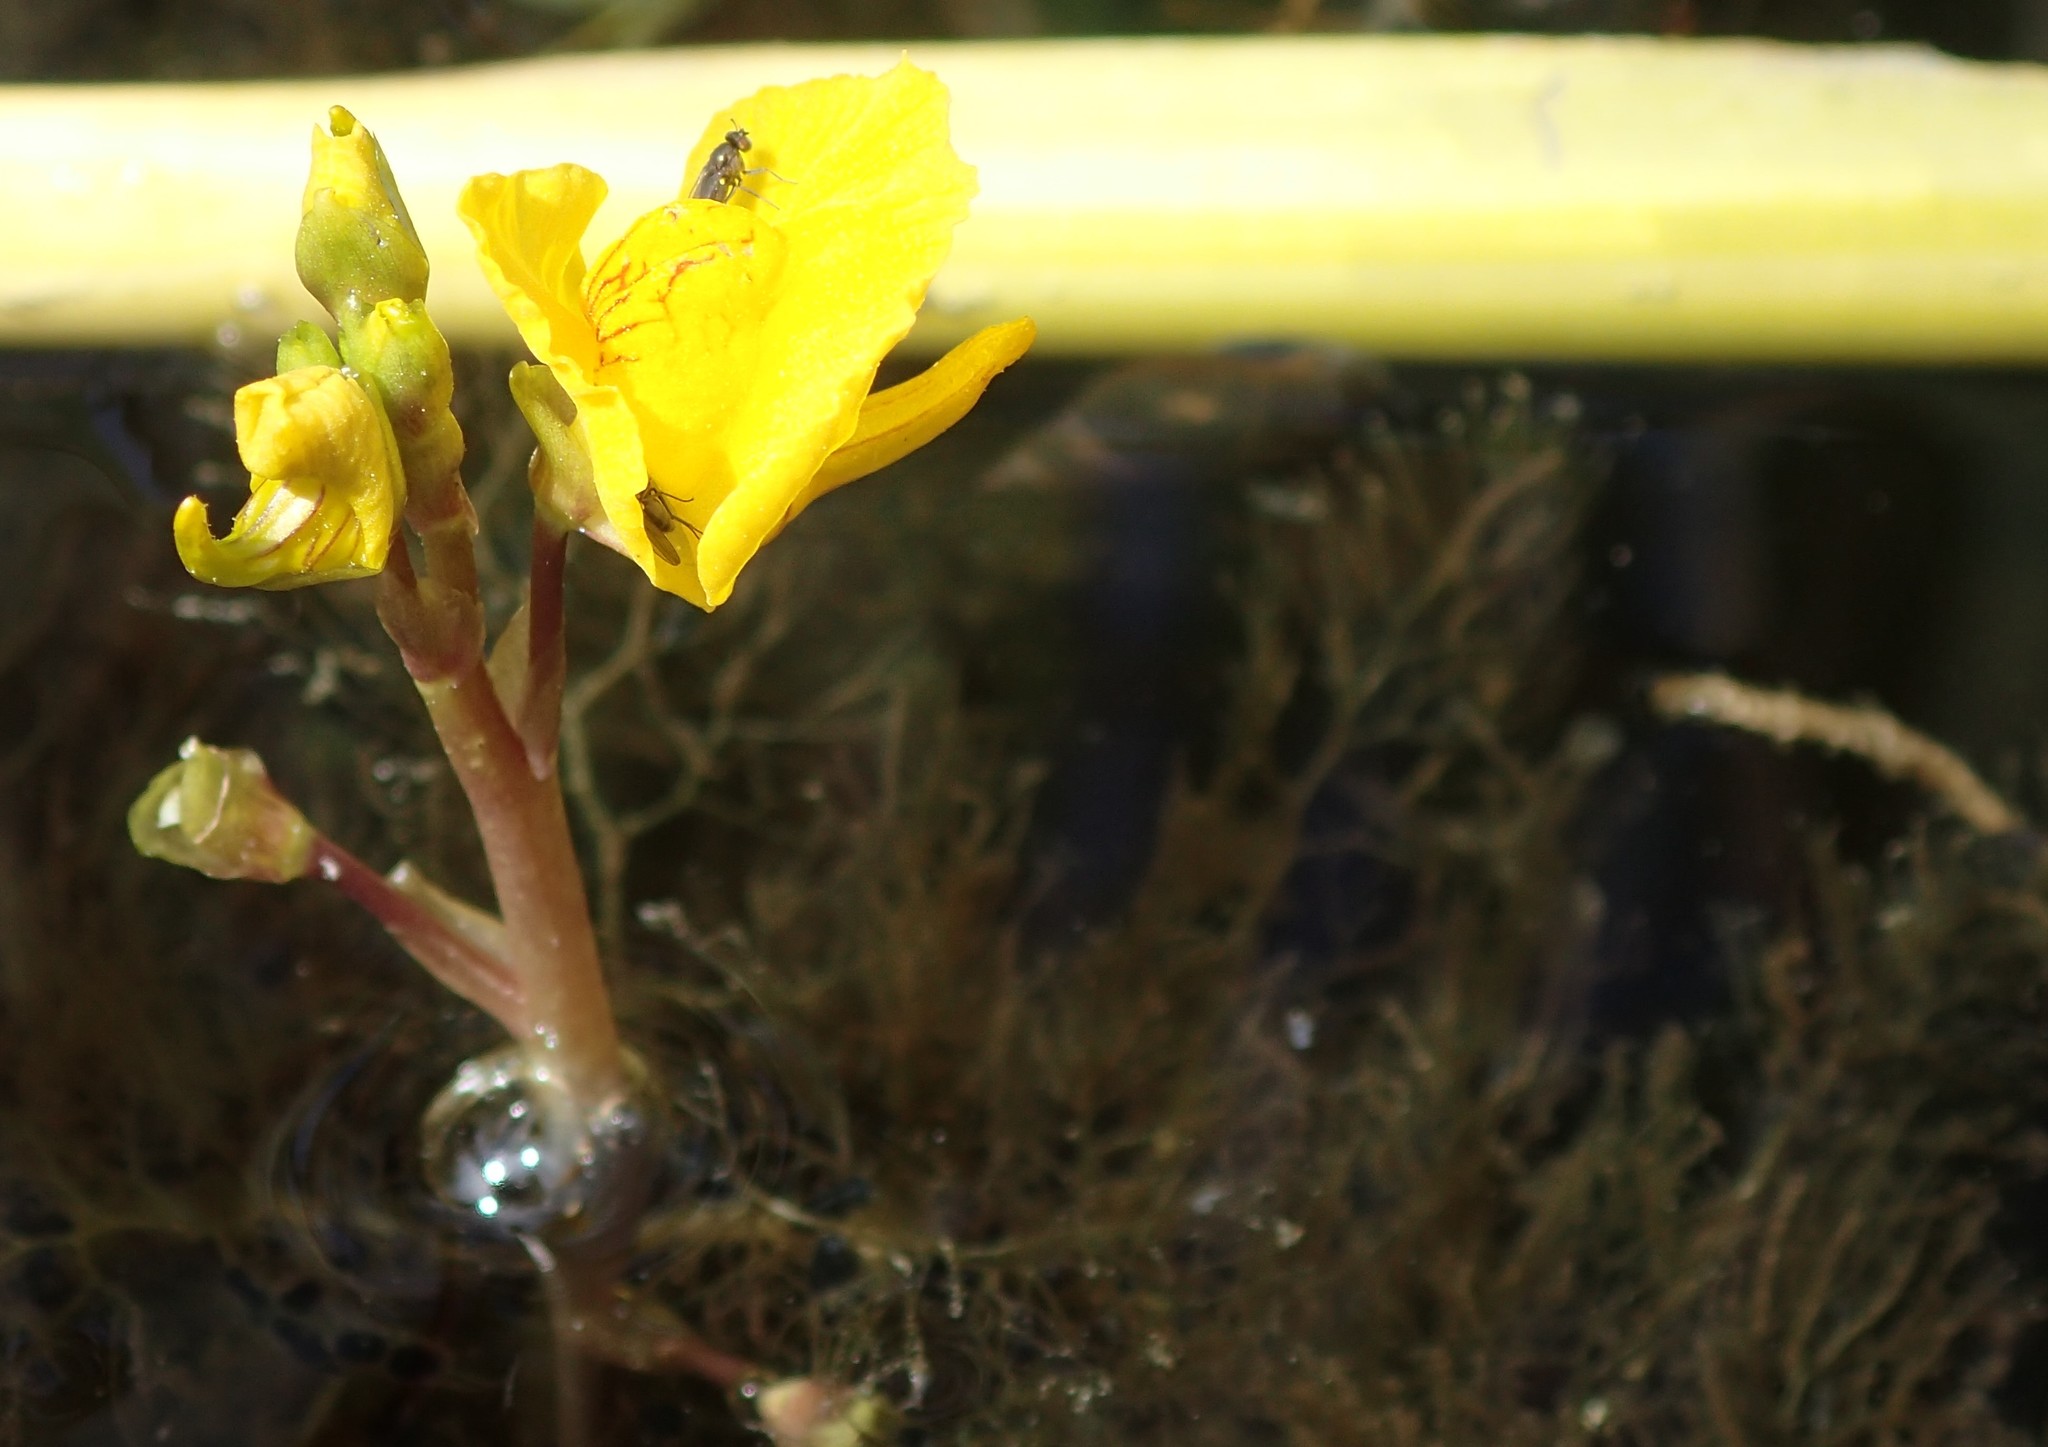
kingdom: Plantae
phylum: Tracheophyta
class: Magnoliopsida
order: Lamiales
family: Lentibulariaceae
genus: Utricularia
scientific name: Utricularia macrorhiza
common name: Common bladderwort
